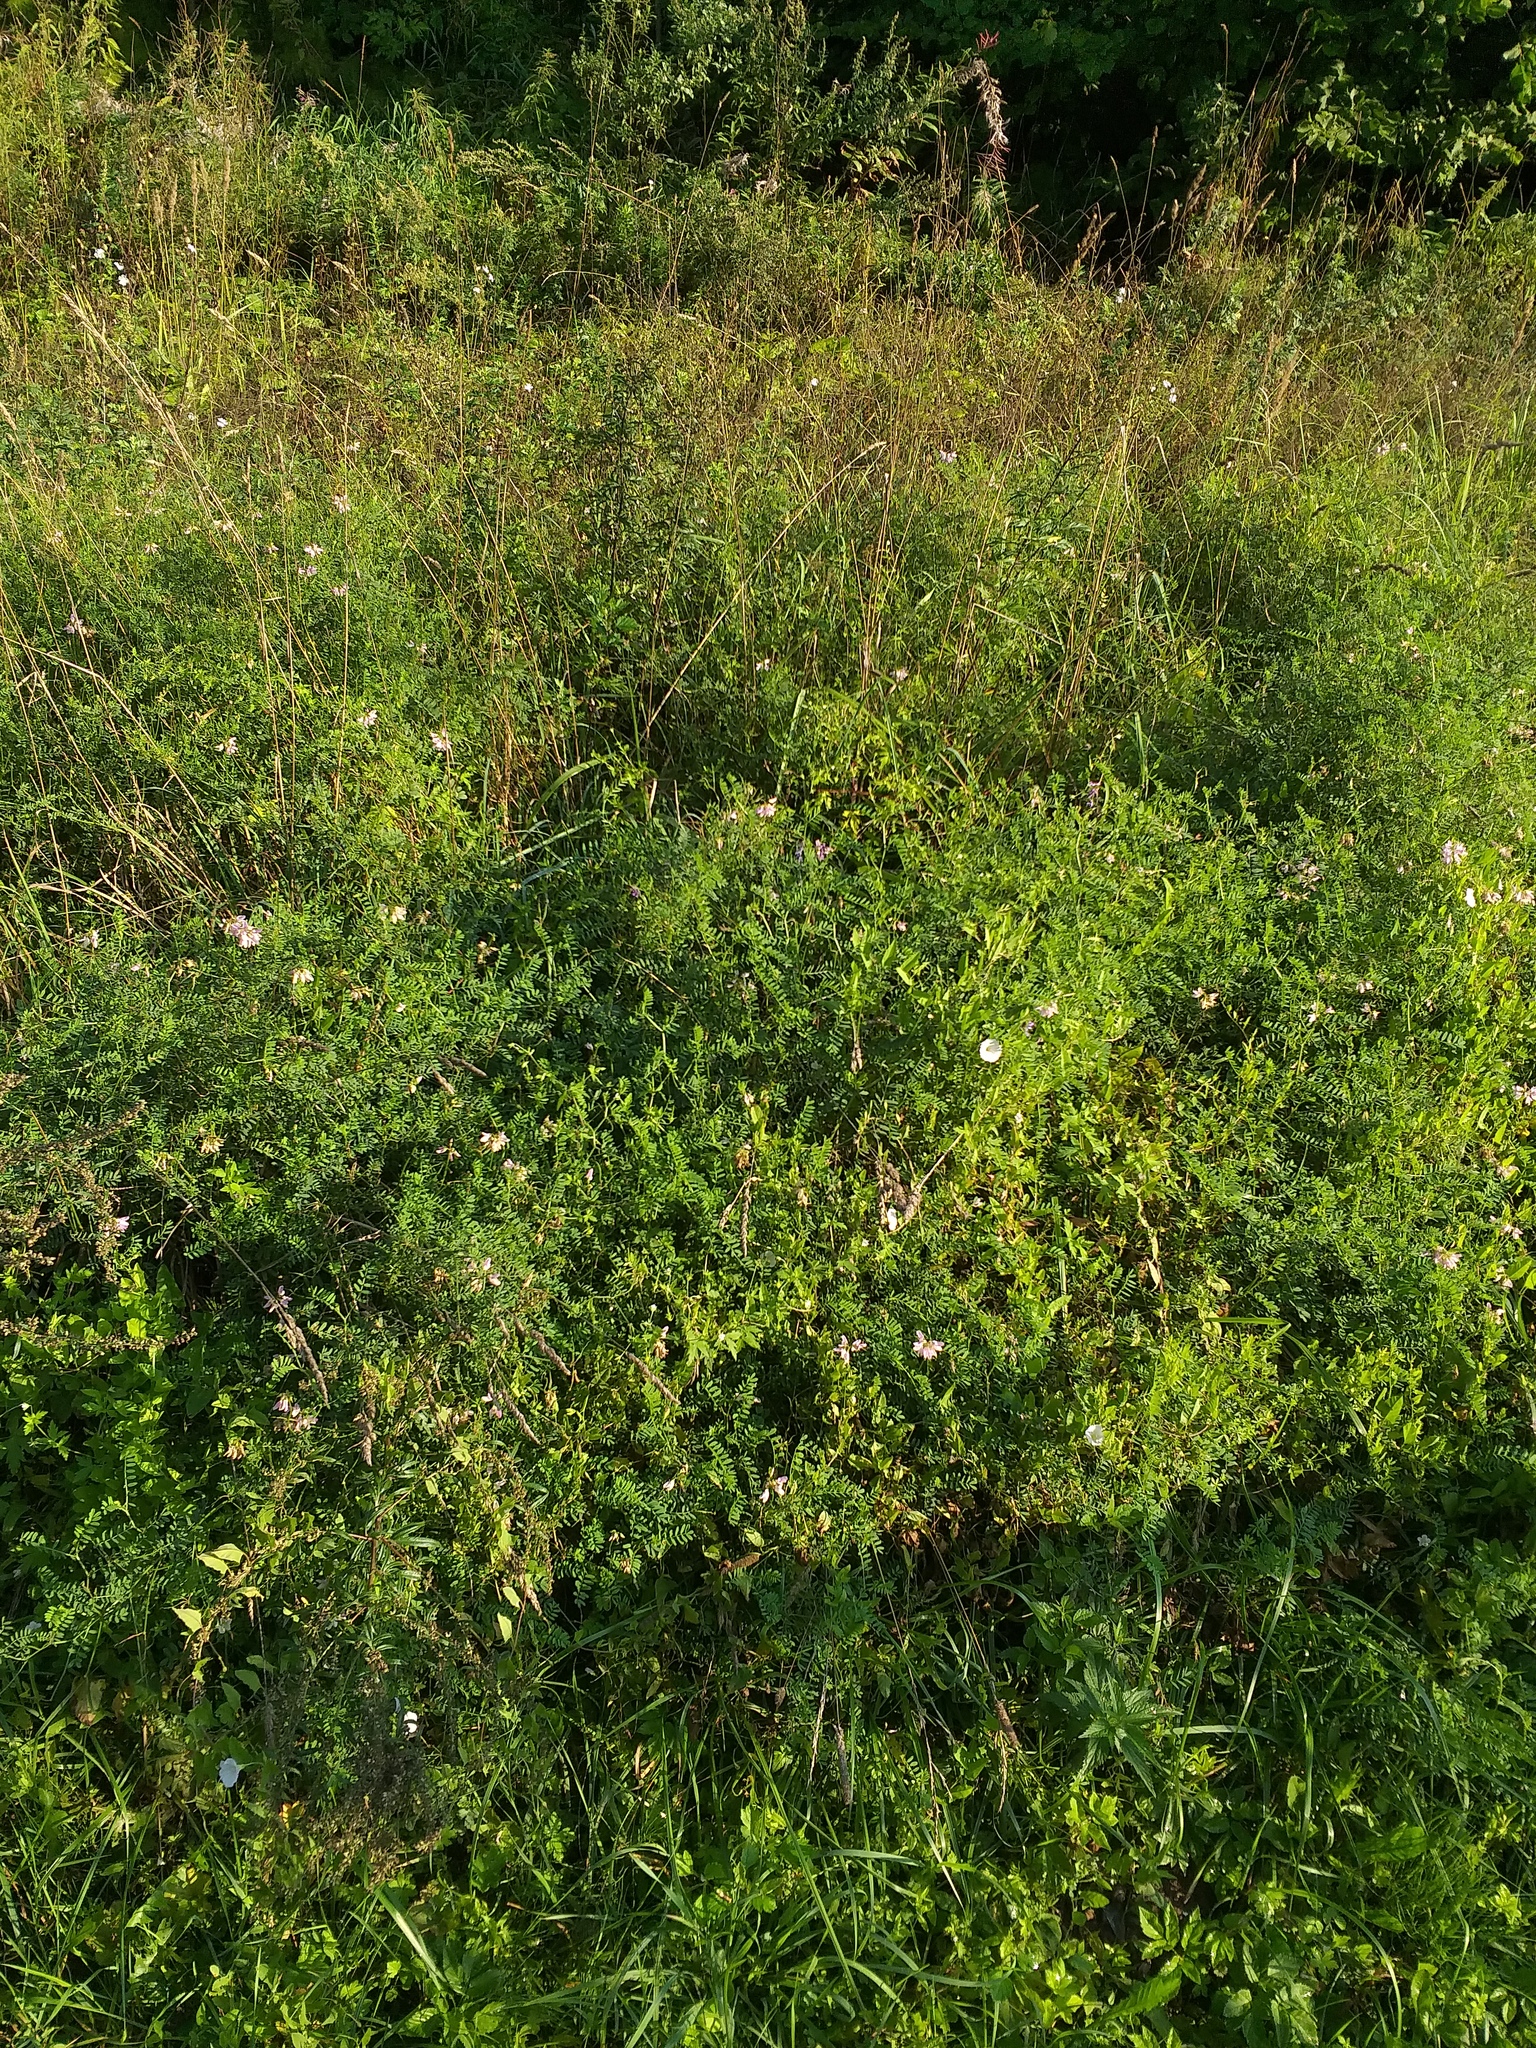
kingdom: Plantae
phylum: Tracheophyta
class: Magnoliopsida
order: Fabales
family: Fabaceae
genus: Coronilla
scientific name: Coronilla varia
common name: Crownvetch
